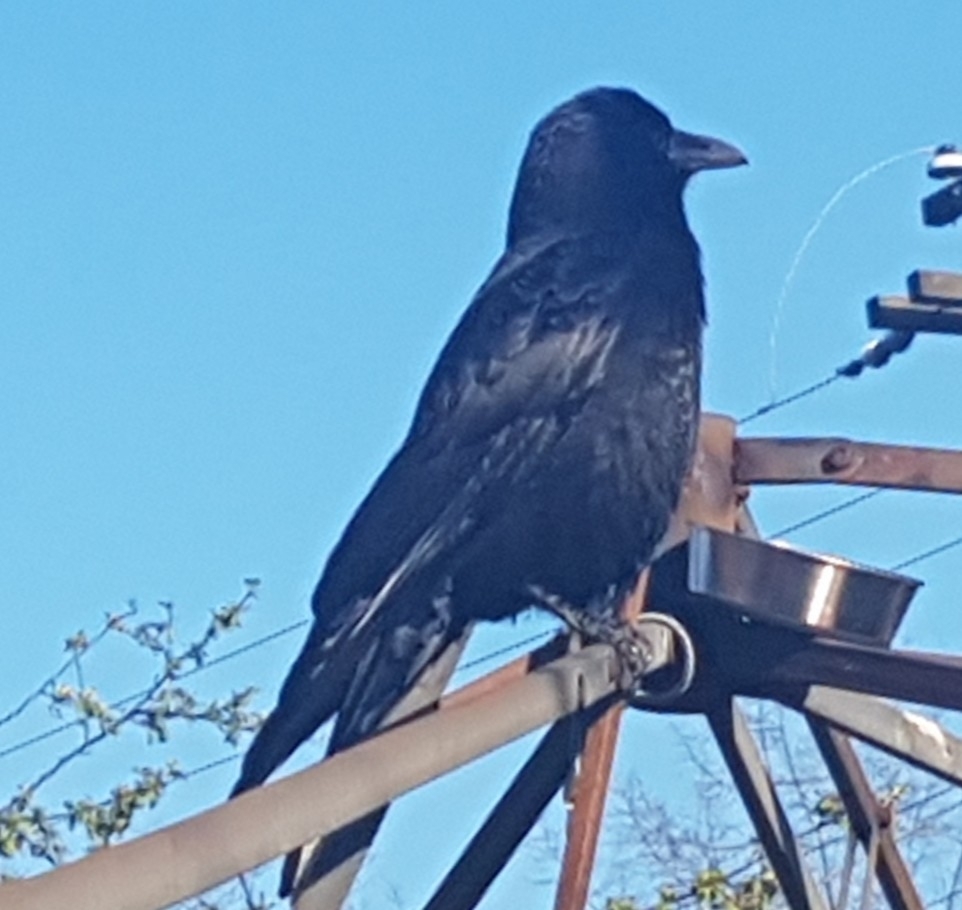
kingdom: Animalia
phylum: Chordata
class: Aves
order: Passeriformes
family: Corvidae
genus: Corvus
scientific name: Corvus brachyrhynchos
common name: American crow
